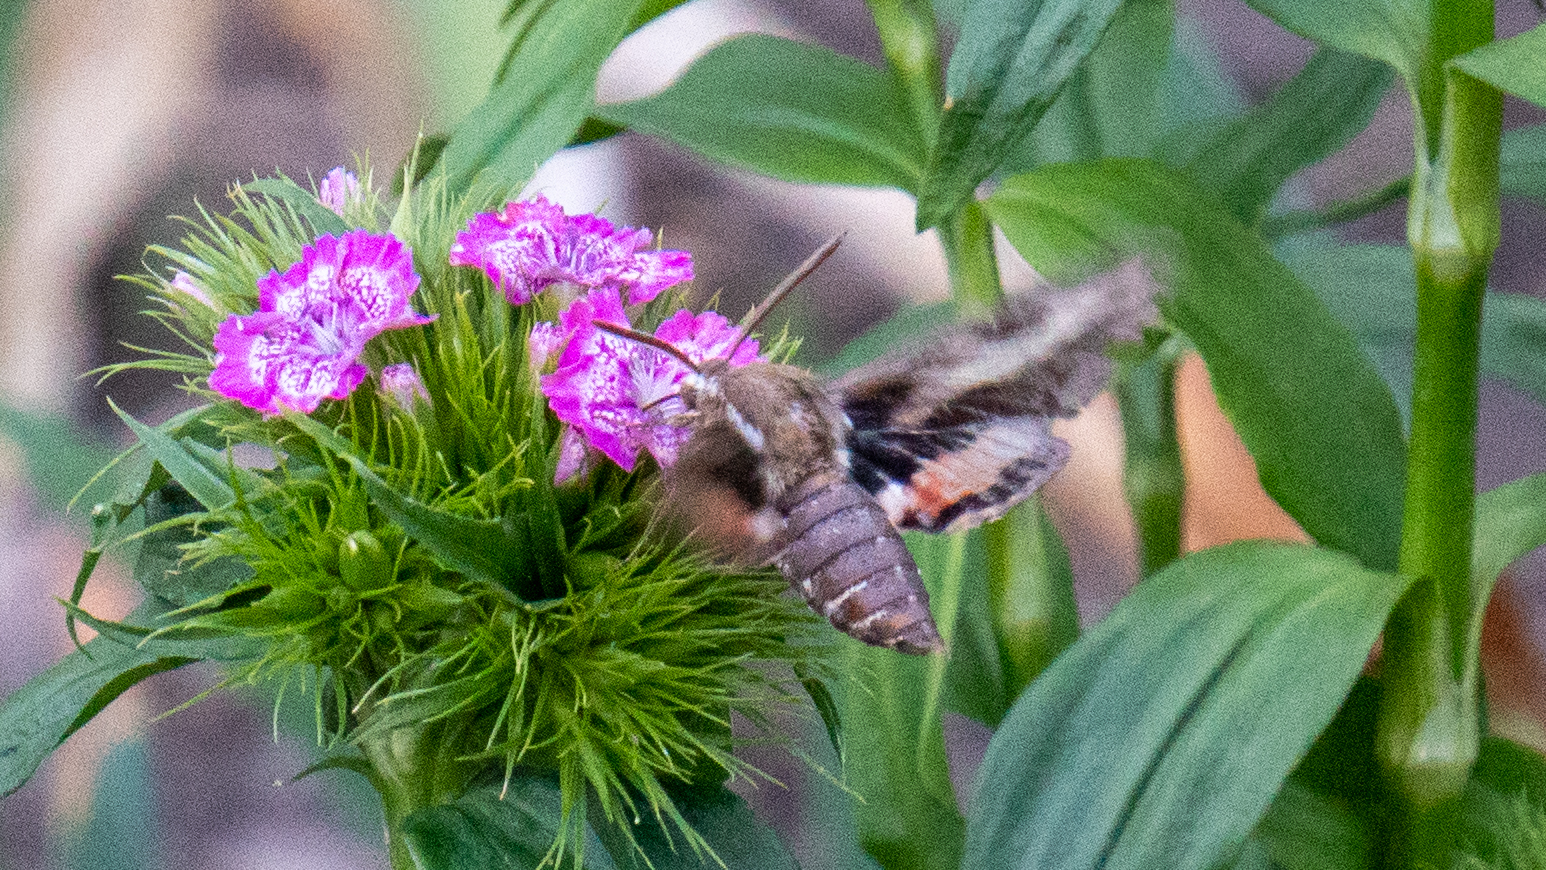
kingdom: Animalia
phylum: Arthropoda
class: Insecta
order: Lepidoptera
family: Sphingidae
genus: Hyles
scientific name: Hyles gallii
